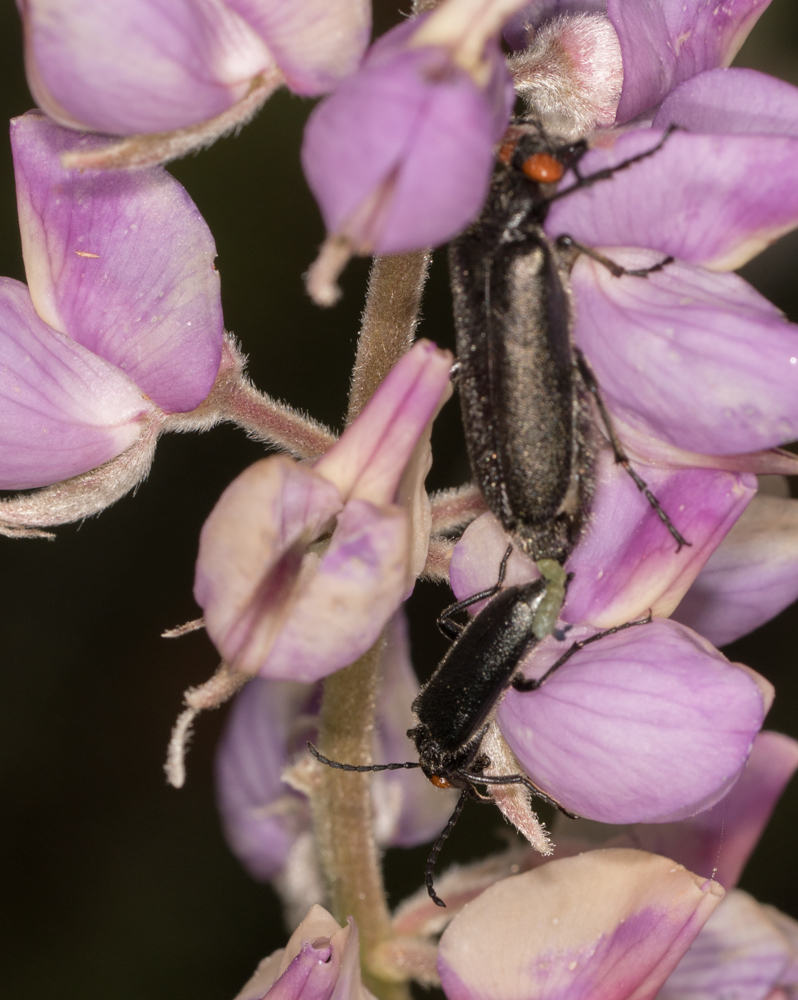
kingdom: Animalia
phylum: Arthropoda
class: Insecta
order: Coleoptera
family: Meloidae
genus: Lytta
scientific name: Lytta auriculata
